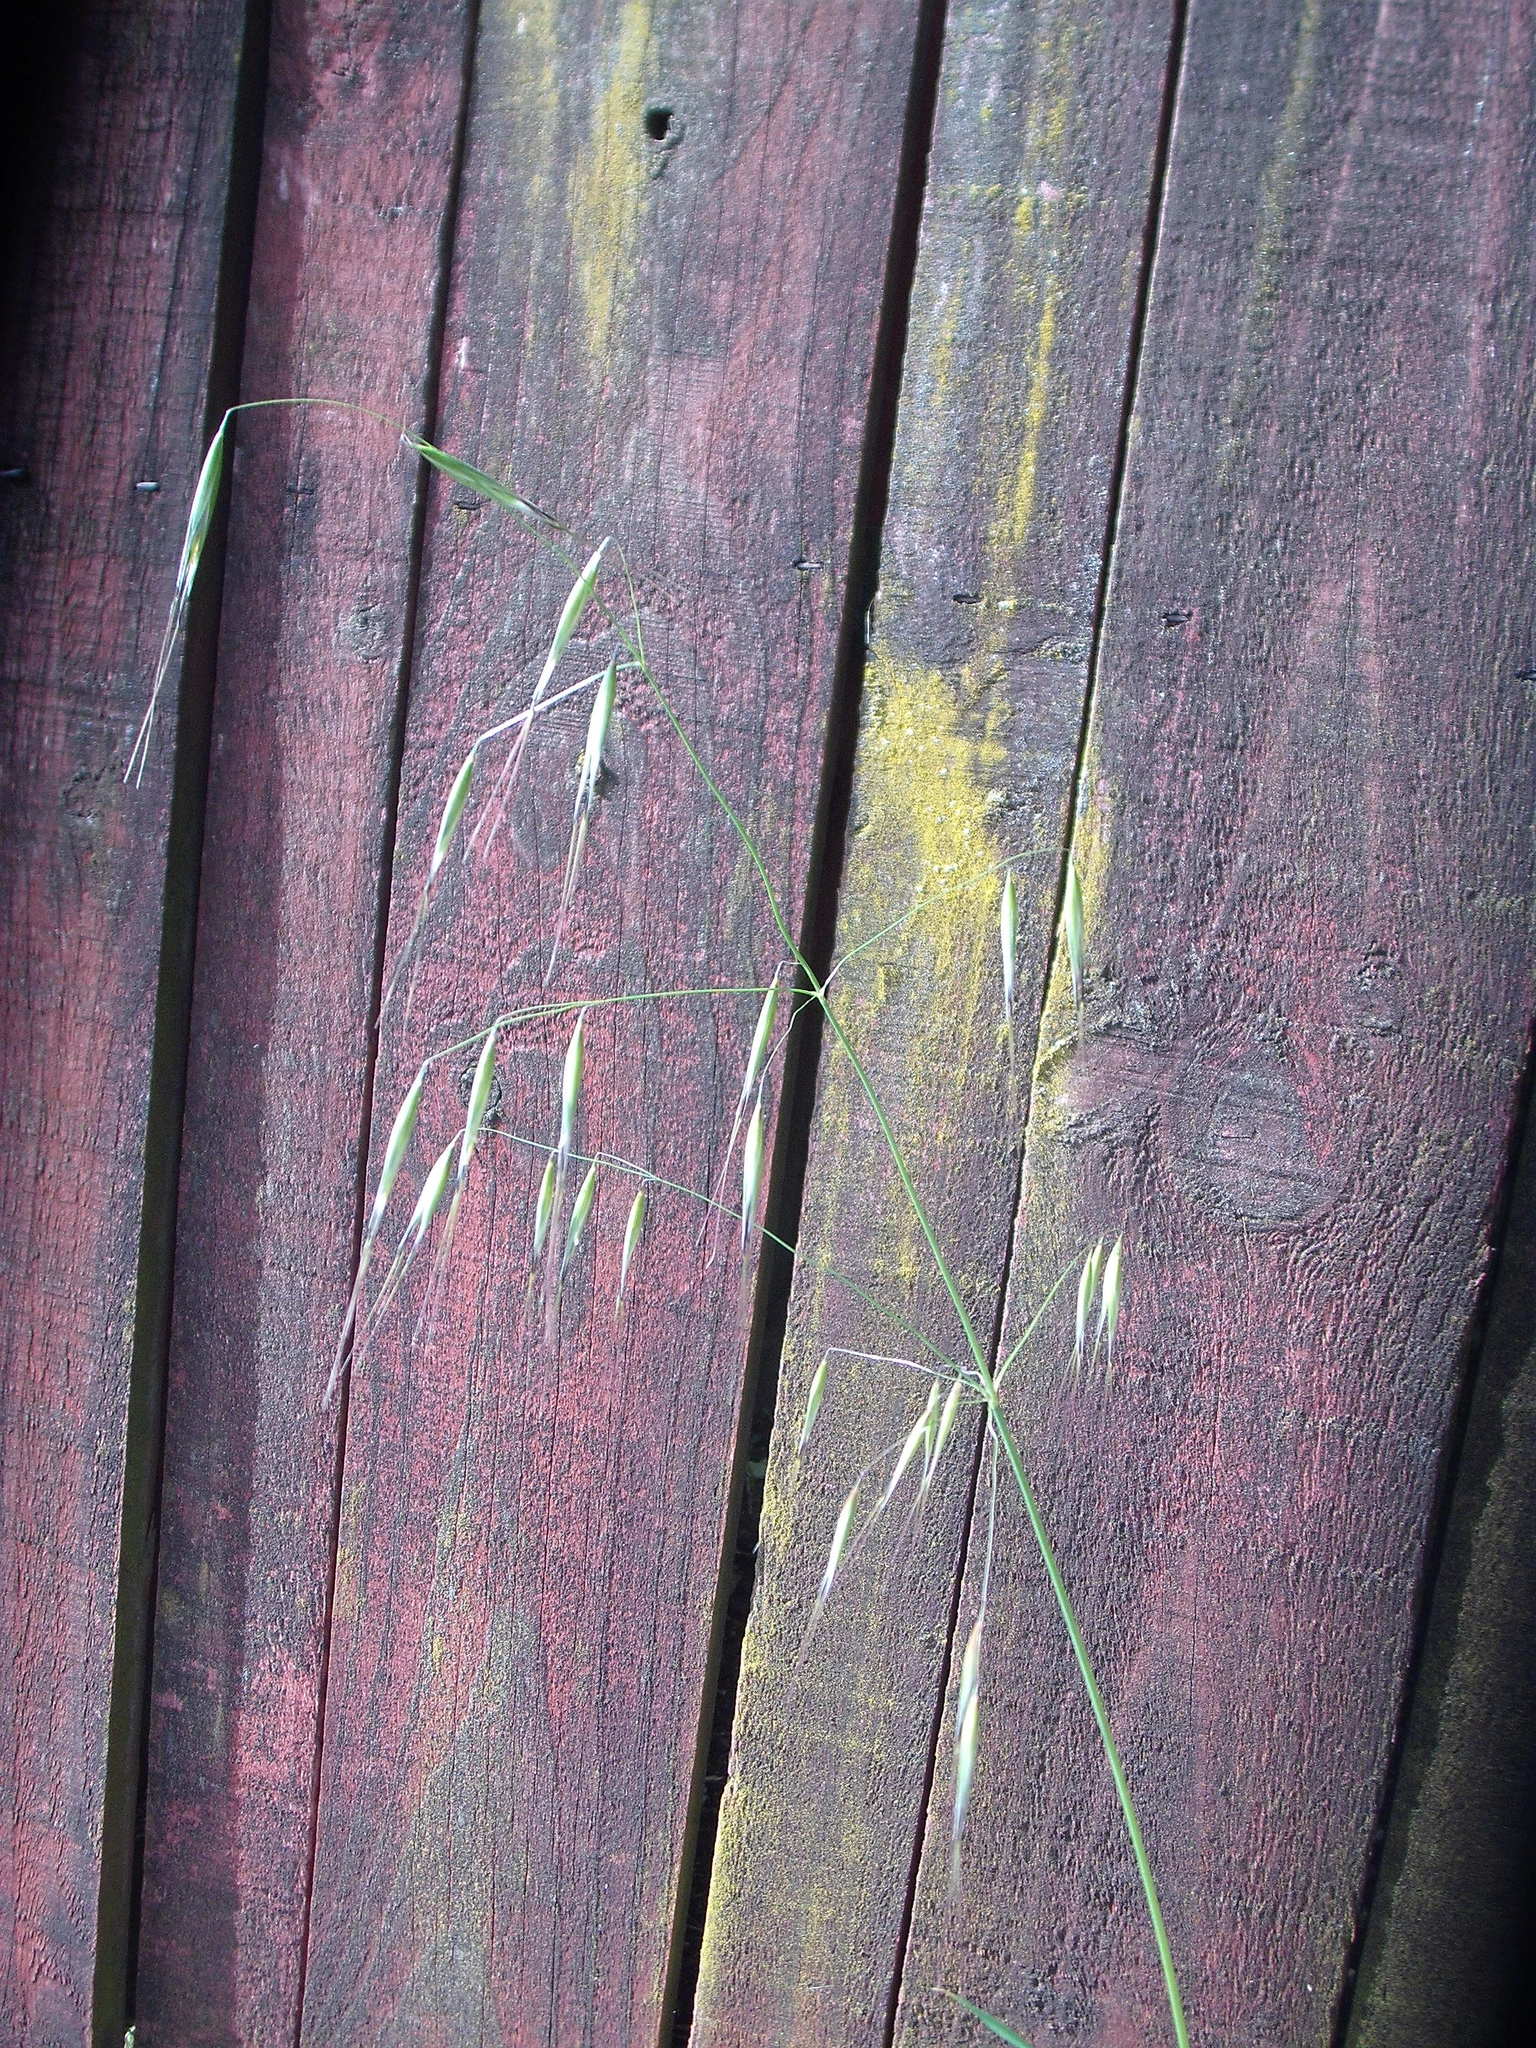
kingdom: Plantae
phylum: Tracheophyta
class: Liliopsida
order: Poales
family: Poaceae
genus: Avena
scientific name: Avena sterilis
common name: Animated oat
